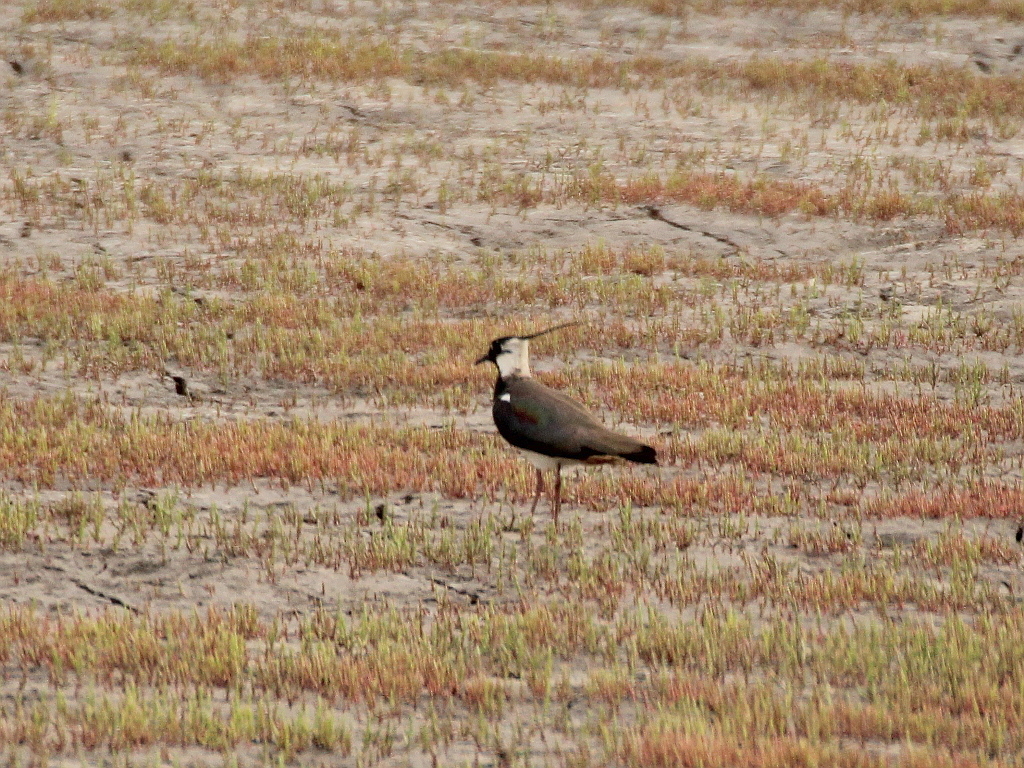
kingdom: Animalia
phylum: Chordata
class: Aves
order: Charadriiformes
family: Charadriidae
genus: Vanellus
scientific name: Vanellus vanellus
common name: Northern lapwing
